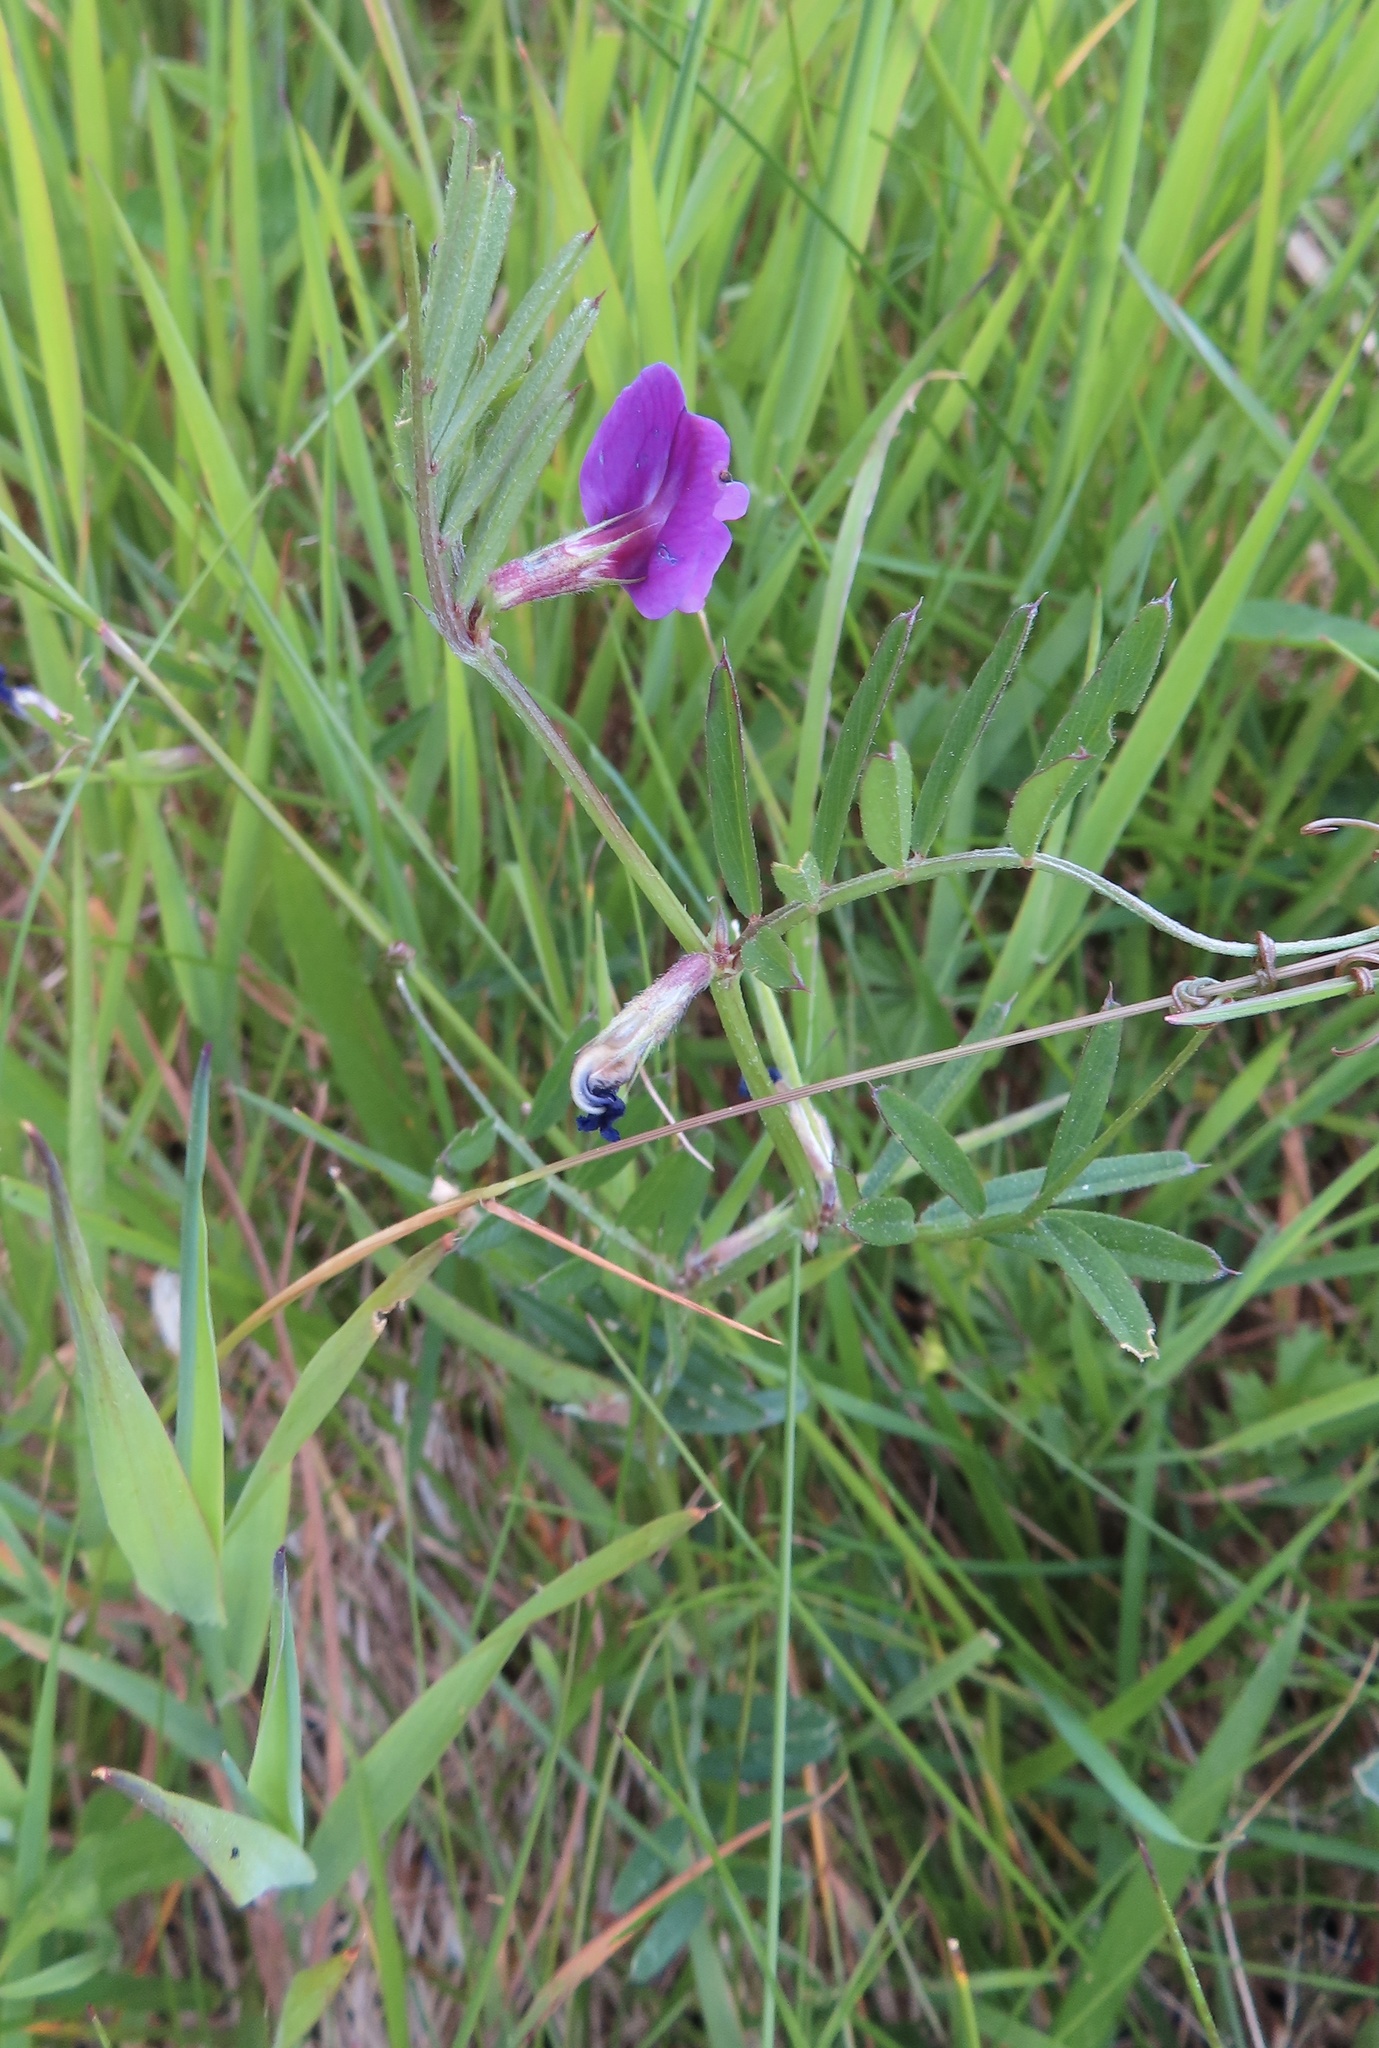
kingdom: Plantae
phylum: Tracheophyta
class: Magnoliopsida
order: Fabales
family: Fabaceae
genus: Vicia
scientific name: Vicia sativa
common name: Garden vetch
